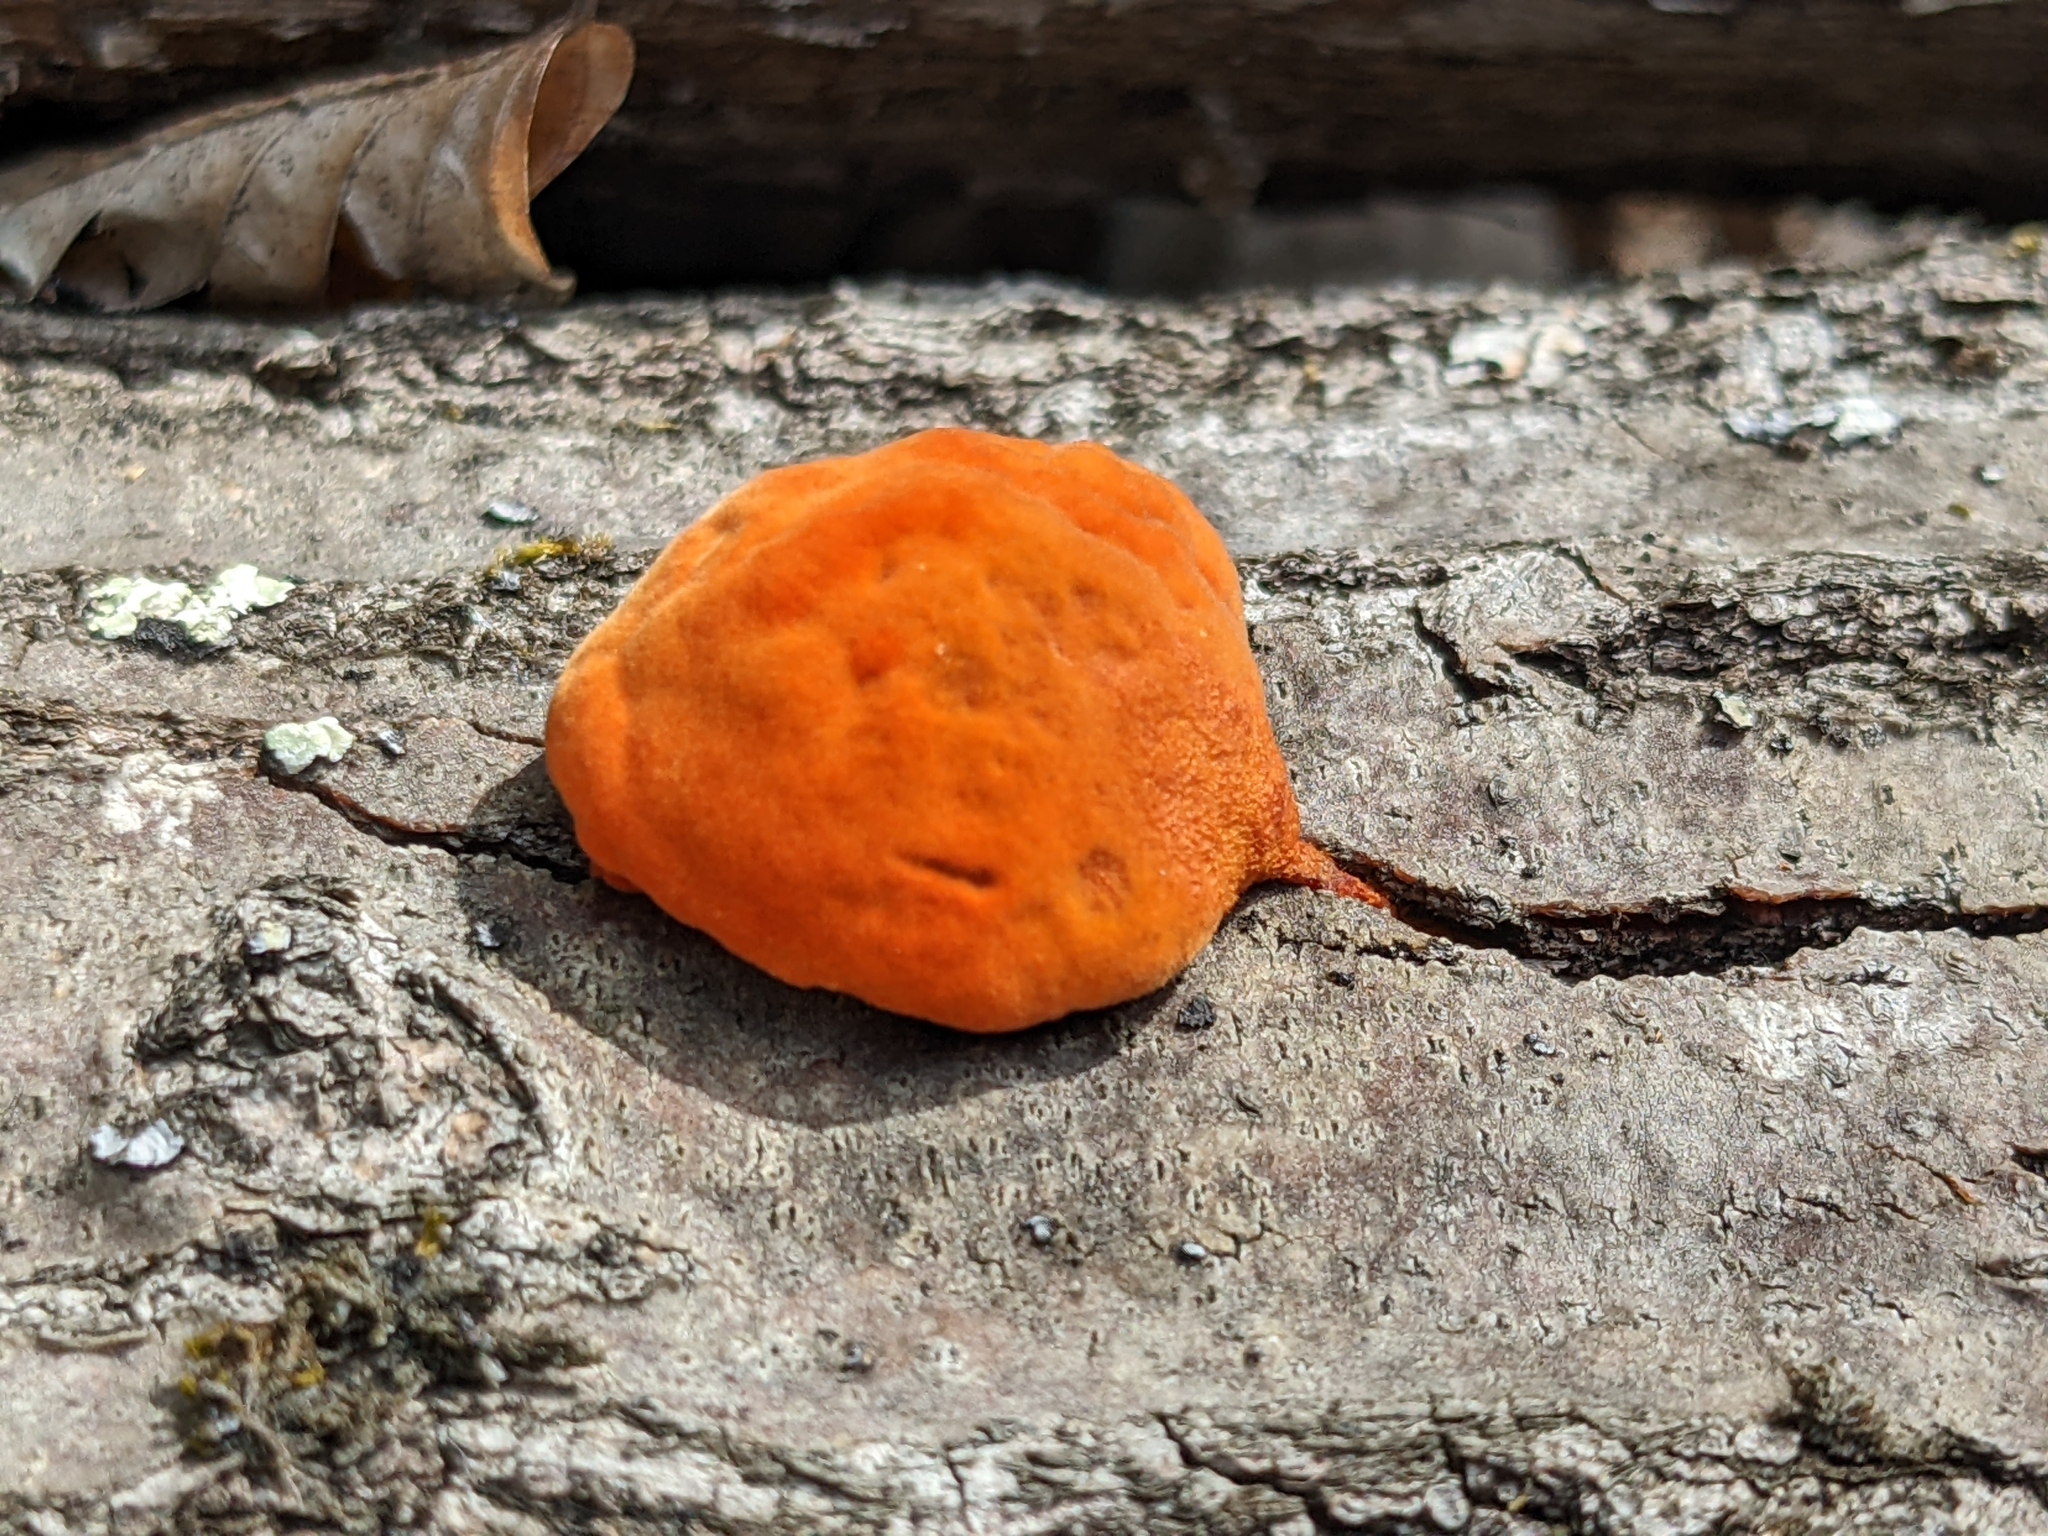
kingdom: Fungi
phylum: Basidiomycota
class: Agaricomycetes
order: Polyporales
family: Polyporaceae
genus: Trametes
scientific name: Trametes cinnabarina
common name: Northern cinnabar polypore
